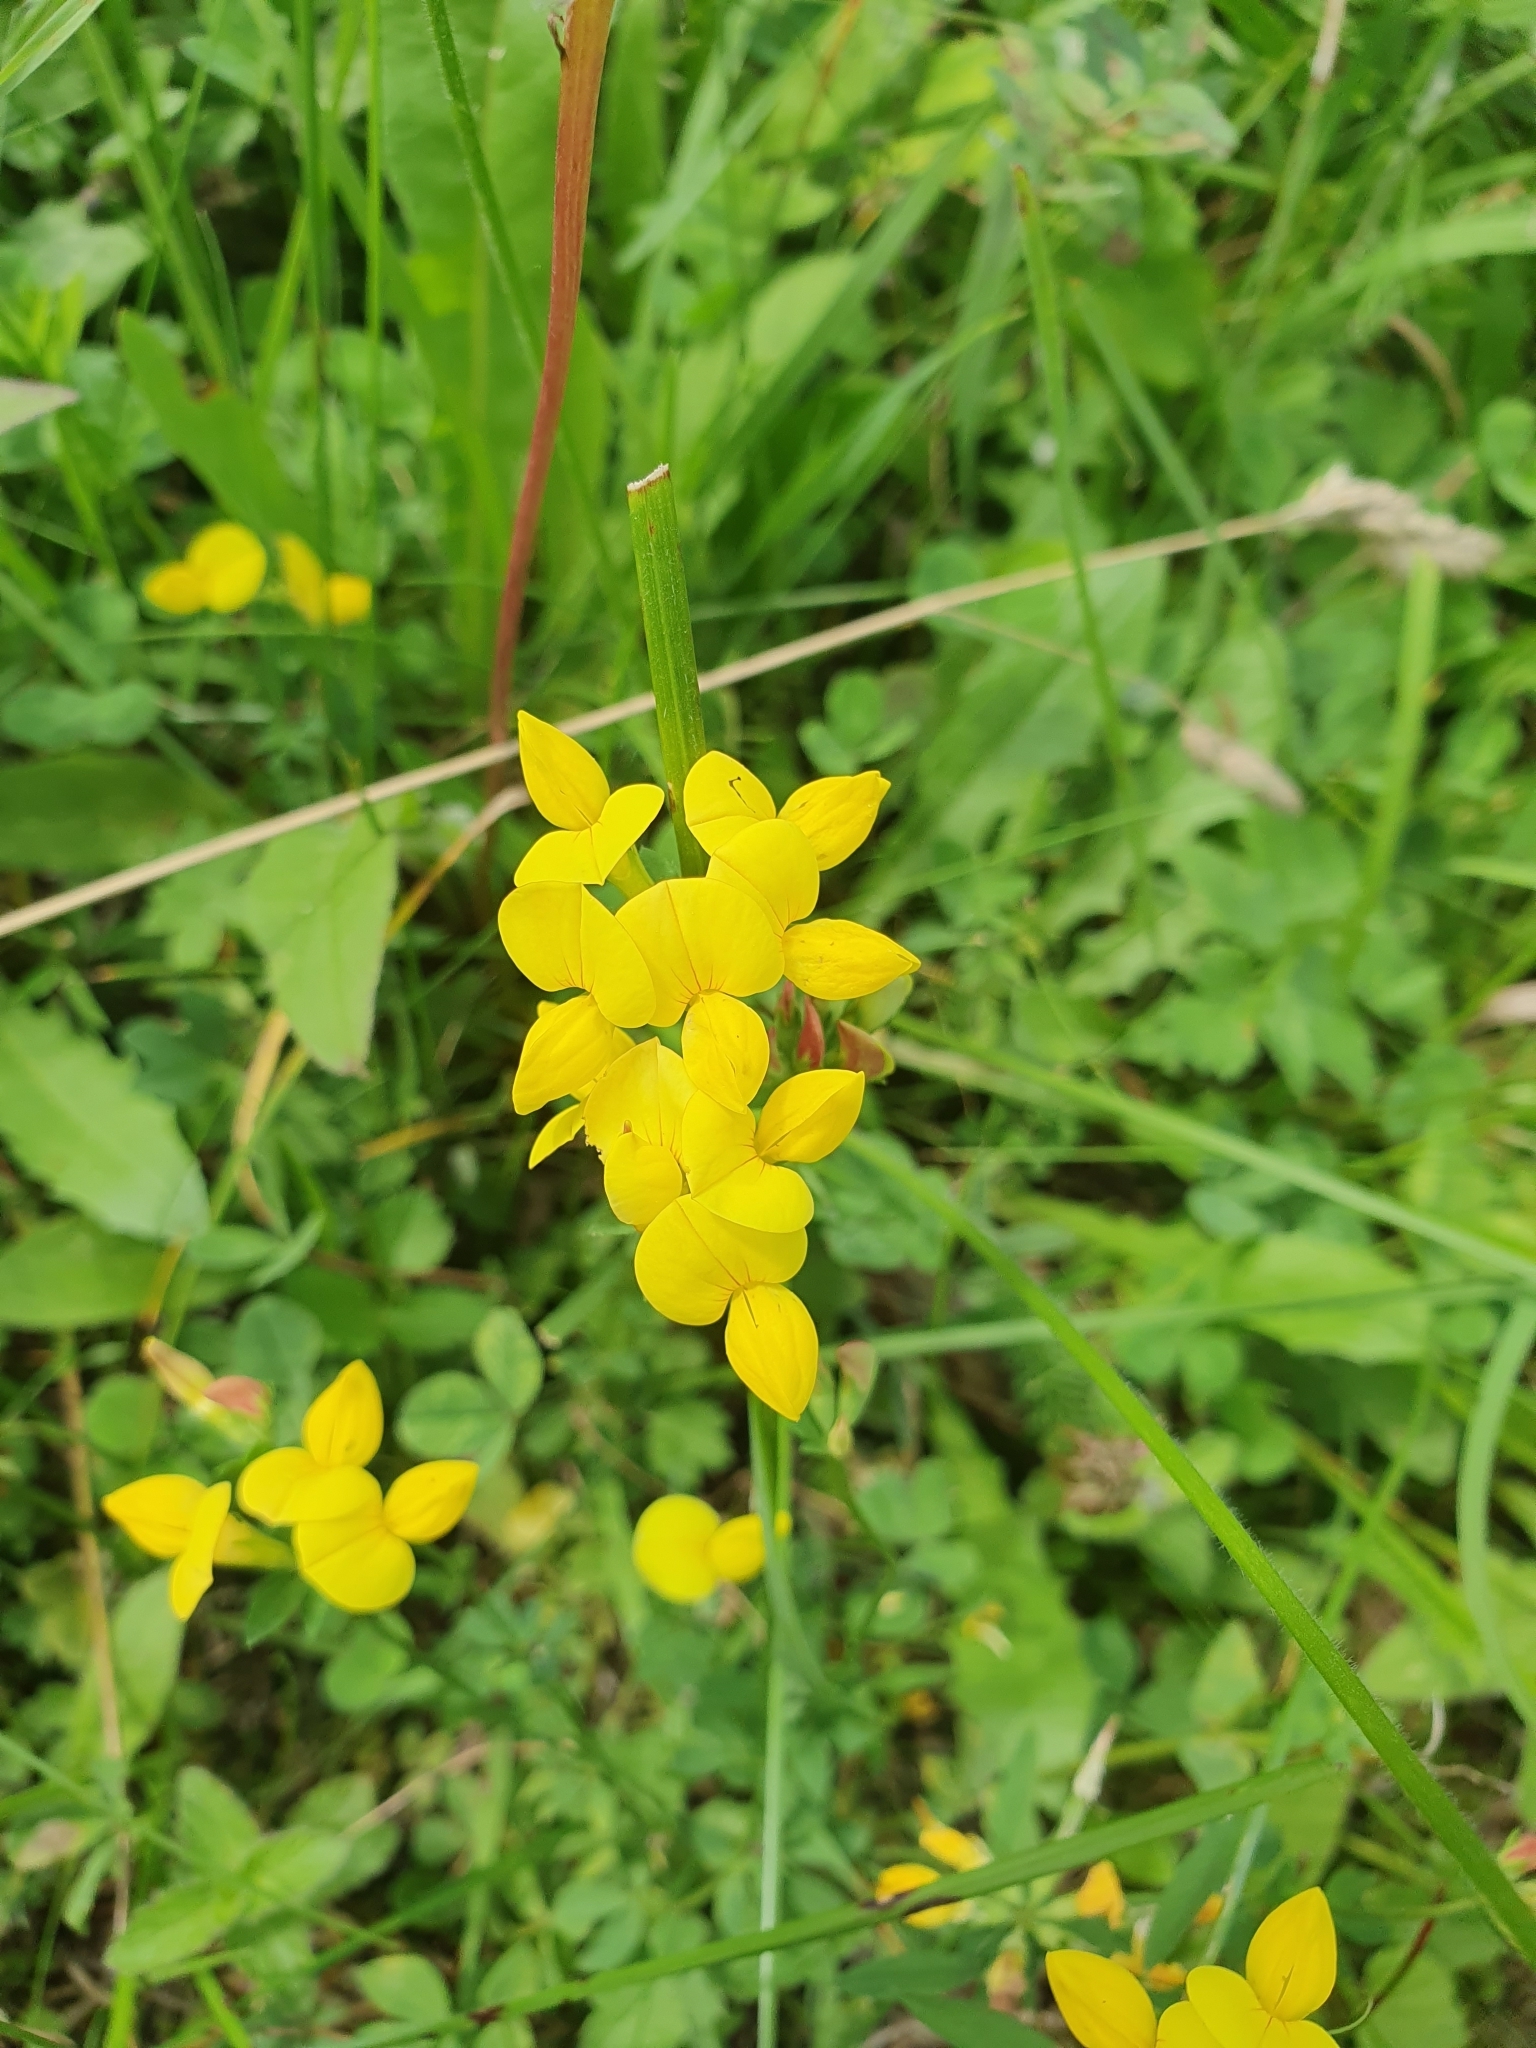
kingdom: Plantae
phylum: Tracheophyta
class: Magnoliopsida
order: Fabales
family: Fabaceae
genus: Lotus
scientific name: Lotus corniculatus
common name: Common bird's-foot-trefoil
